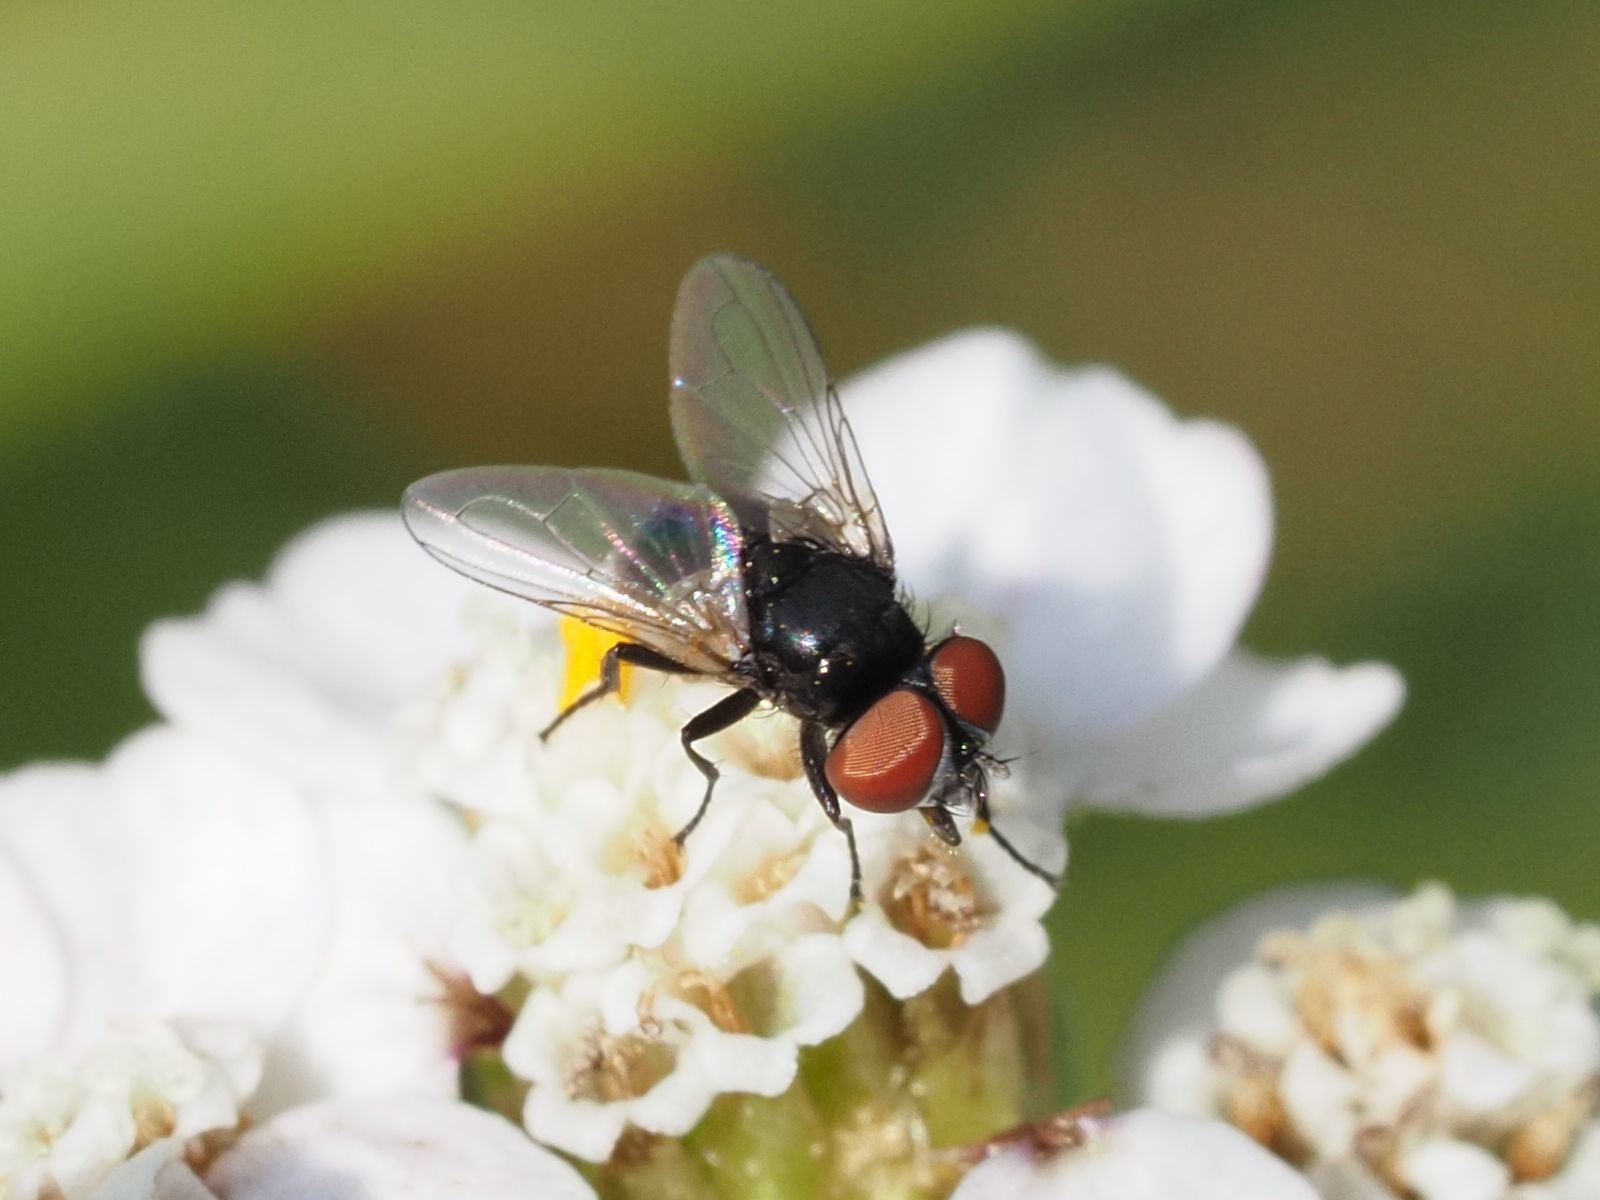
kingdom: Animalia
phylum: Arthropoda
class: Insecta
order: Diptera
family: Tachinidae
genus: Phasia
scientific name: Phasia pusilla
